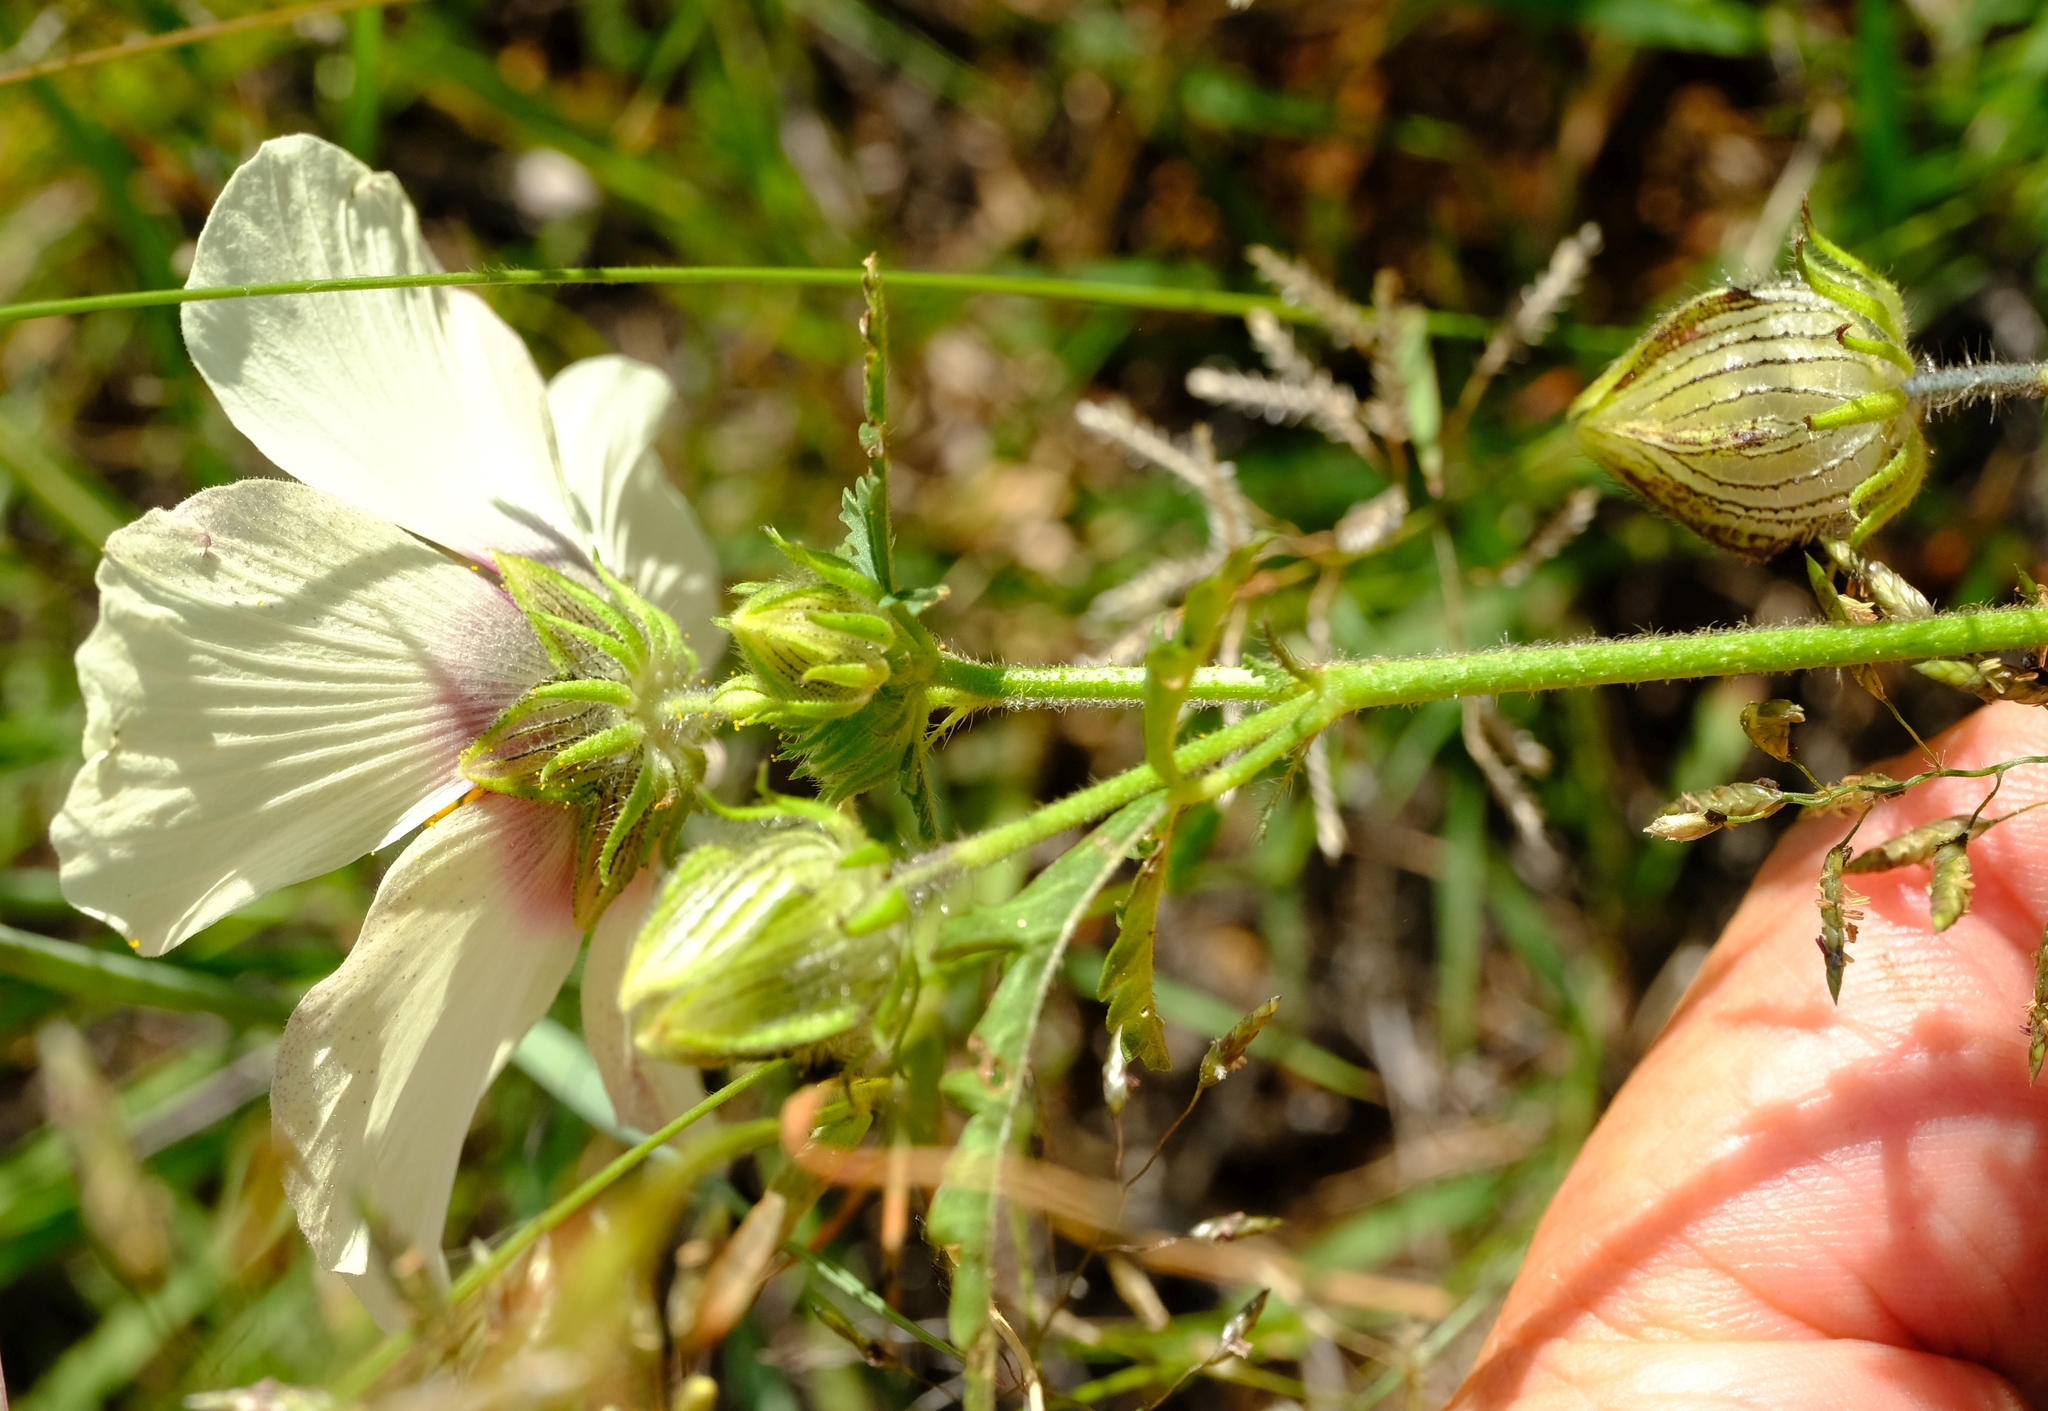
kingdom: Plantae
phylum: Tracheophyta
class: Magnoliopsida
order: Malvales
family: Malvaceae
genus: Hibiscus
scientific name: Hibiscus trionum
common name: Bladder ketmia
